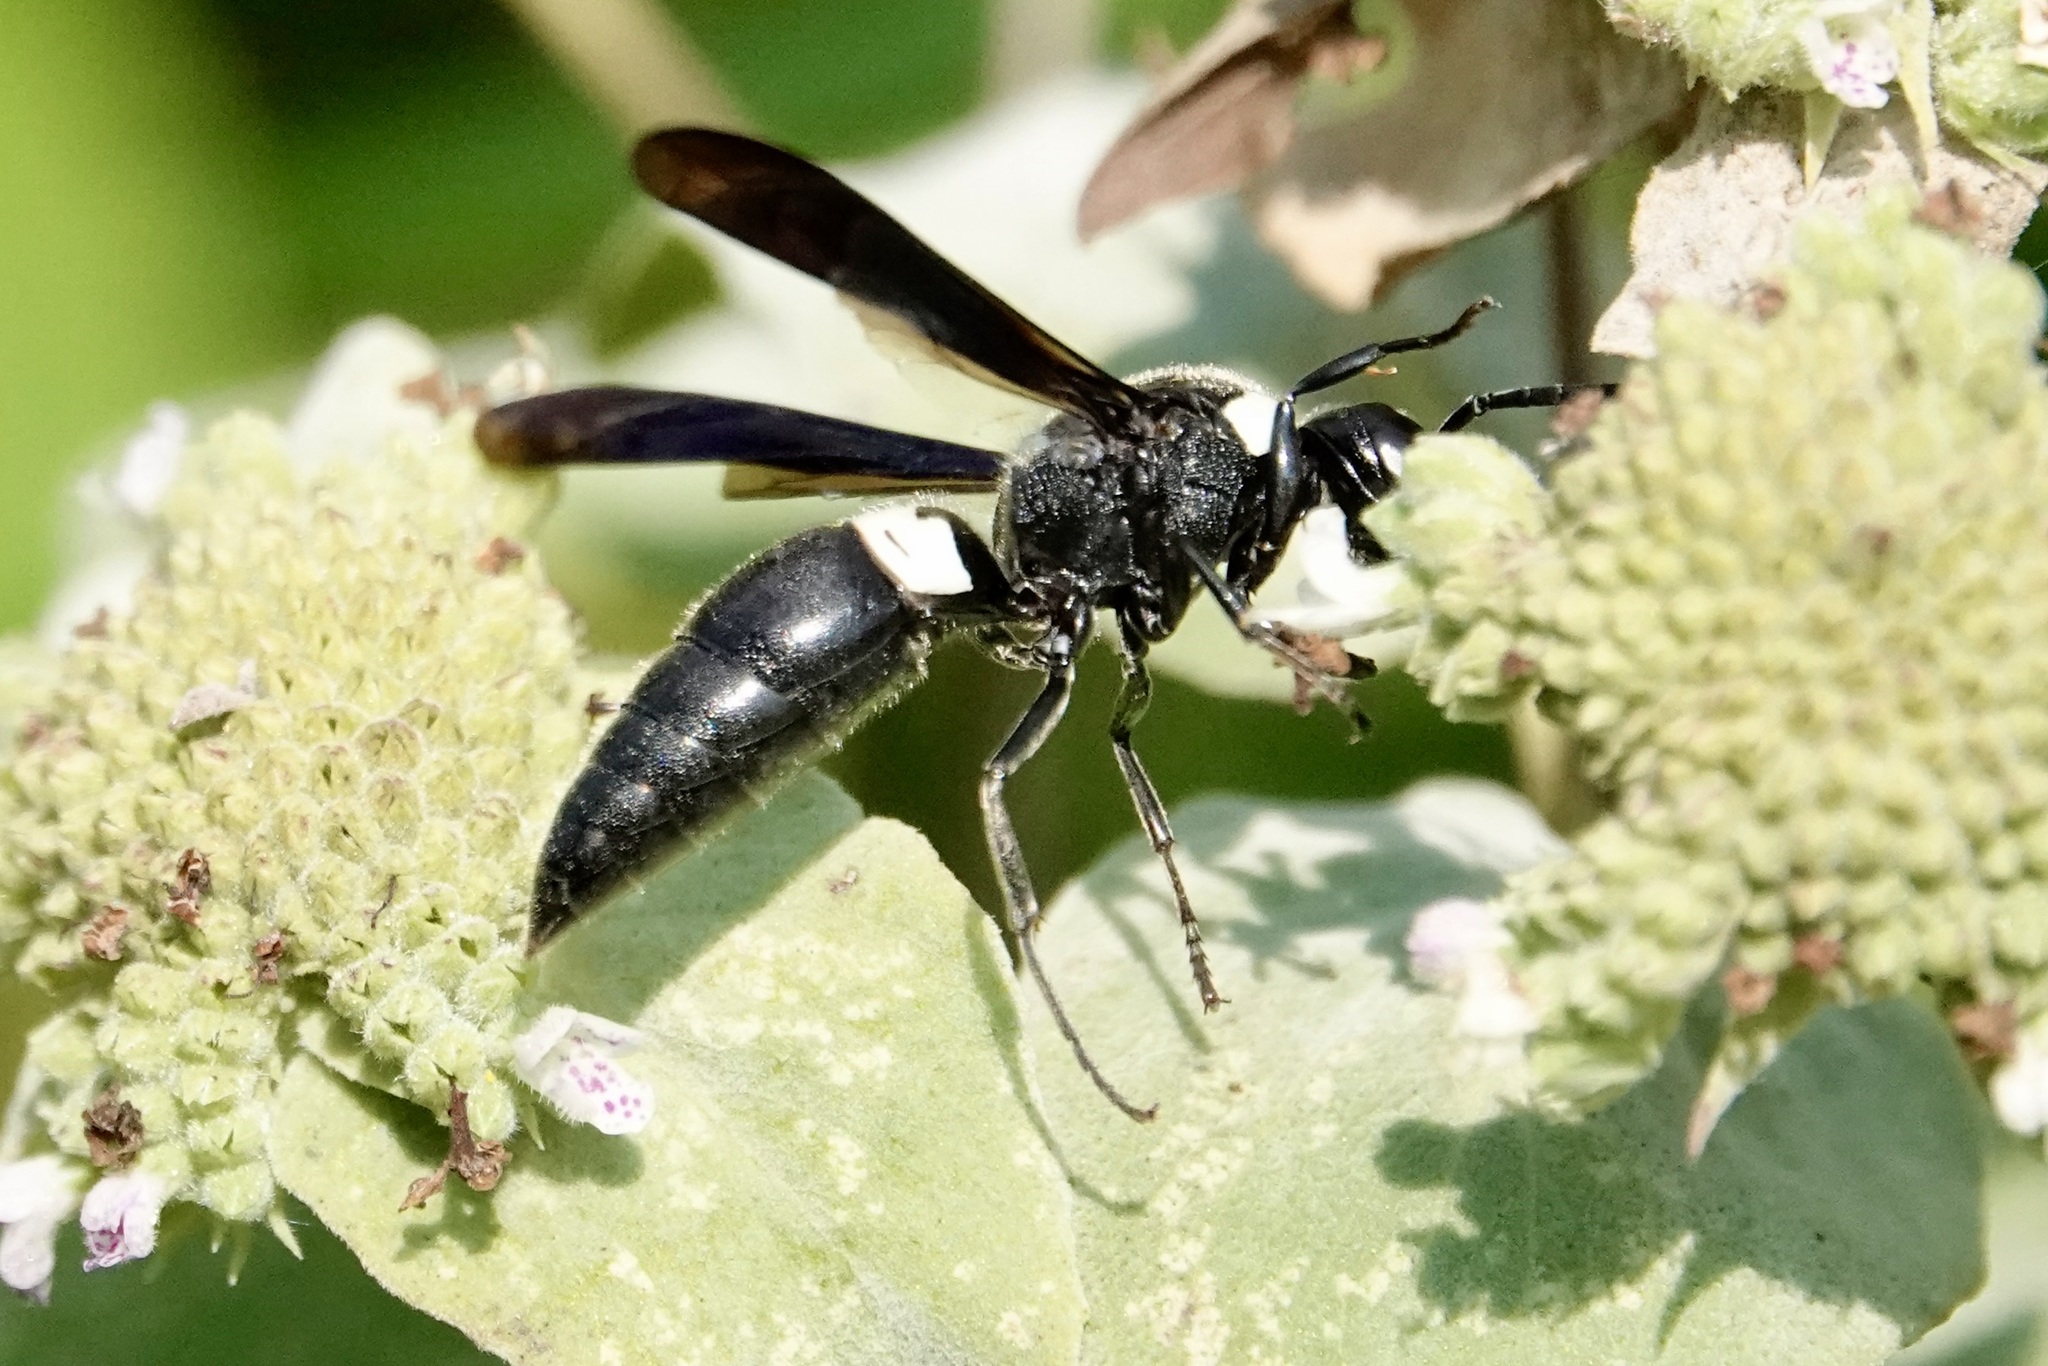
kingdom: Animalia
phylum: Arthropoda
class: Insecta
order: Hymenoptera
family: Eumenidae
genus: Monobia
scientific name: Monobia quadridens
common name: Four-toothed mason wasp
